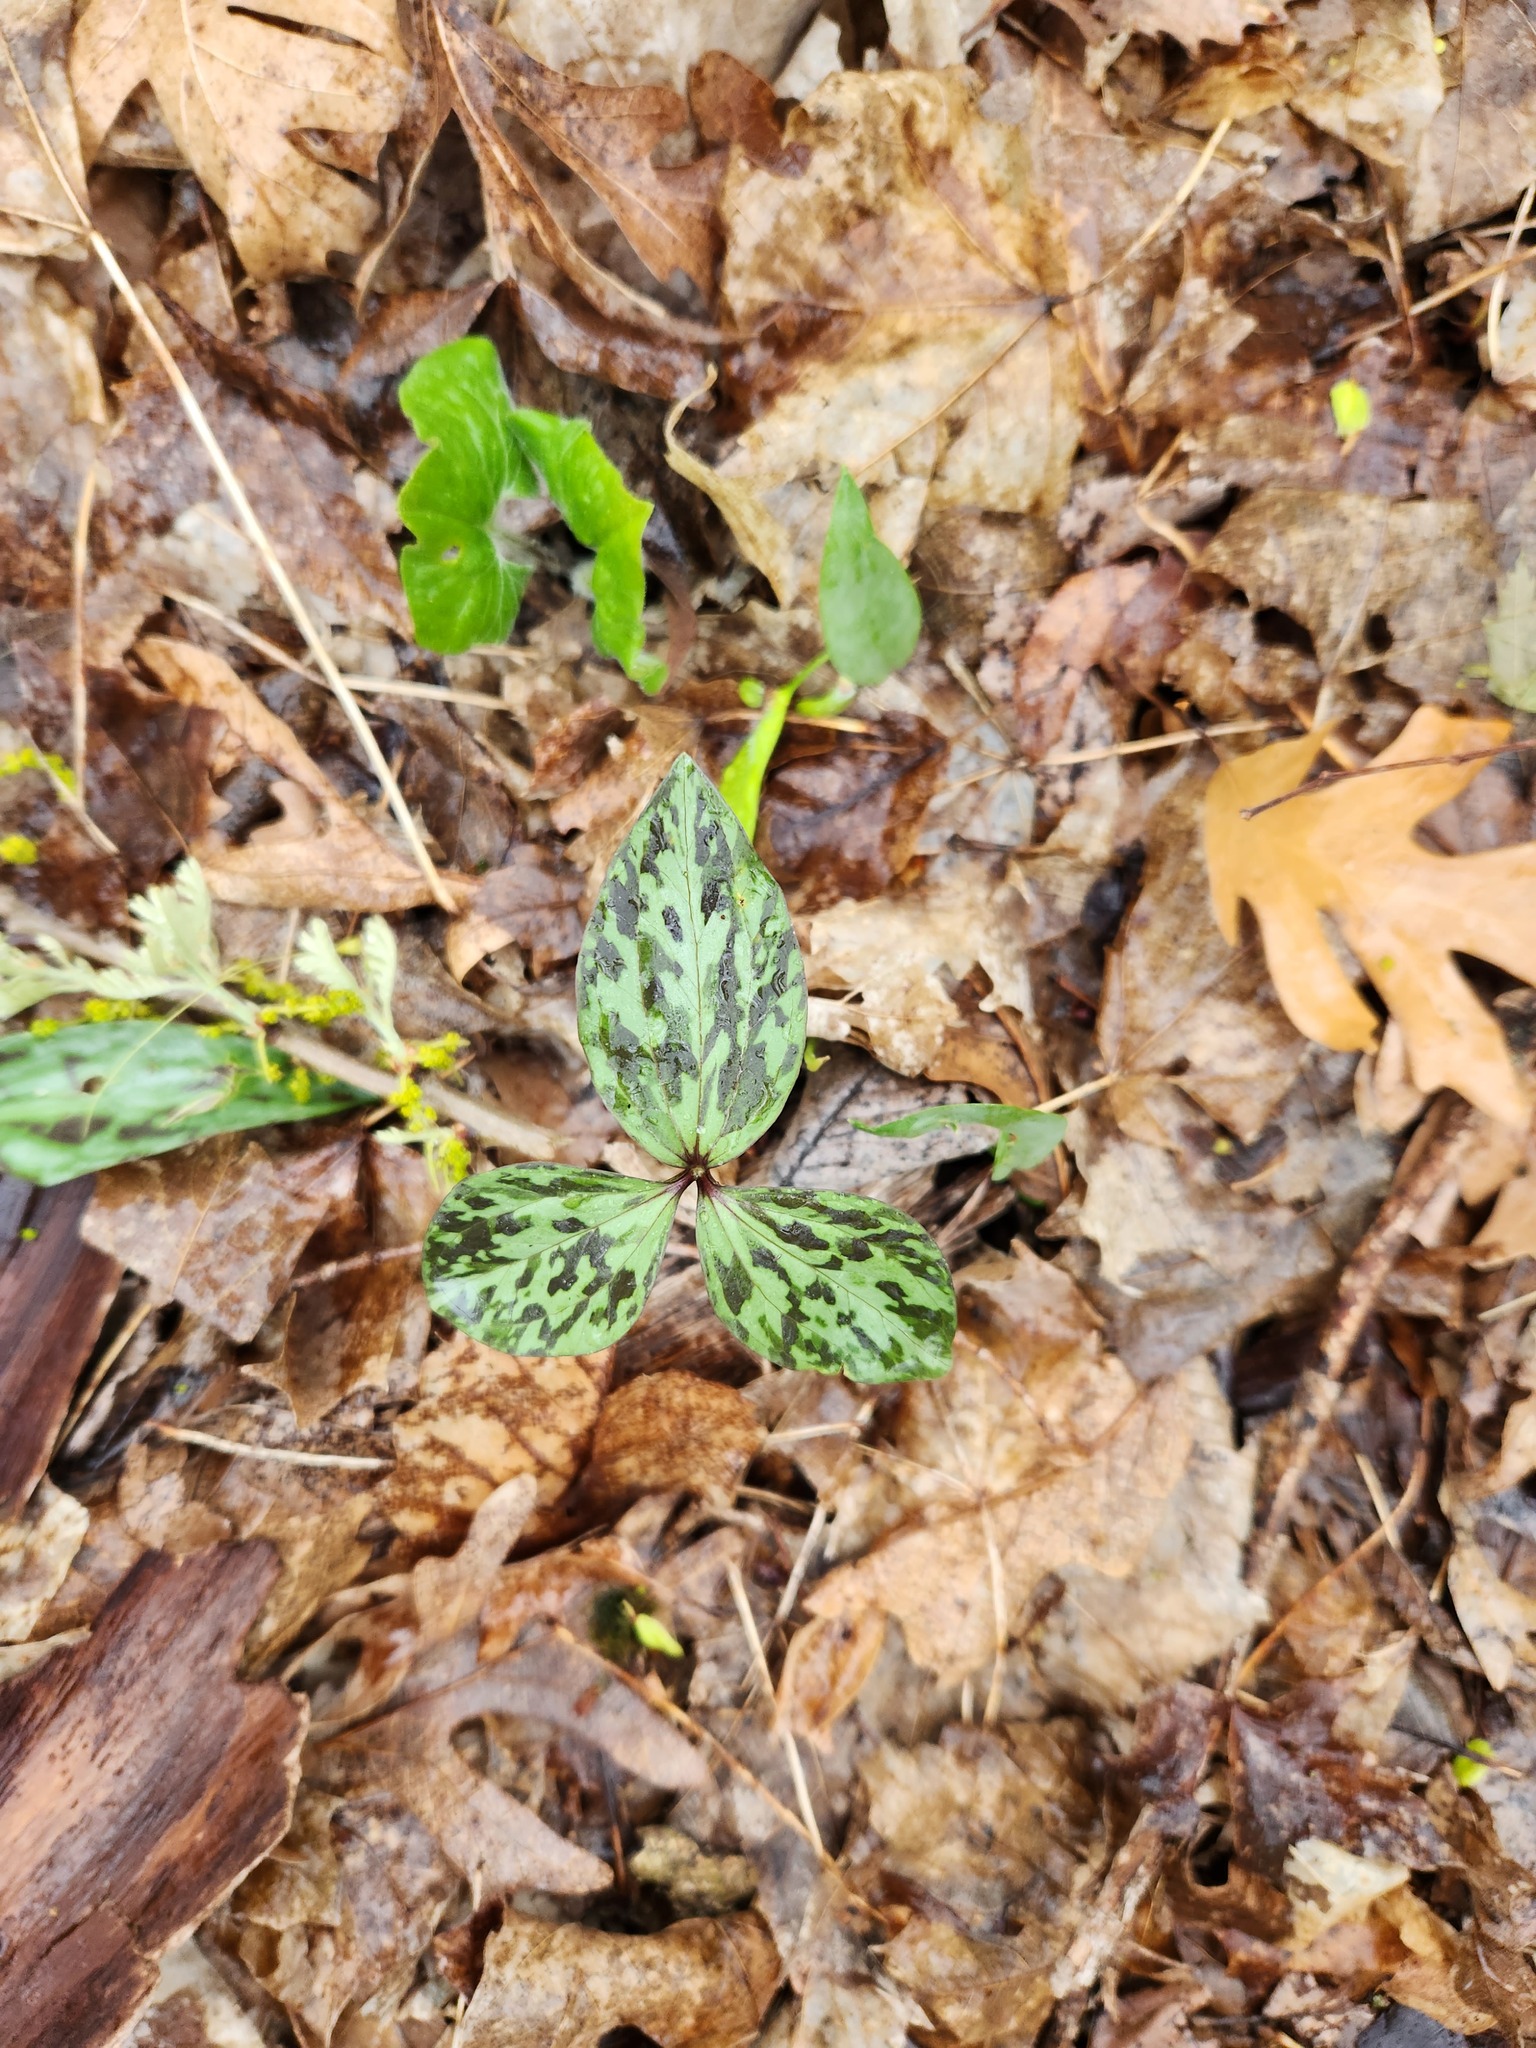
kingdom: Plantae
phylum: Tracheophyta
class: Liliopsida
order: Liliales
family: Melanthiaceae
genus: Trillium
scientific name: Trillium recurvatum
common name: Bloody butcher
